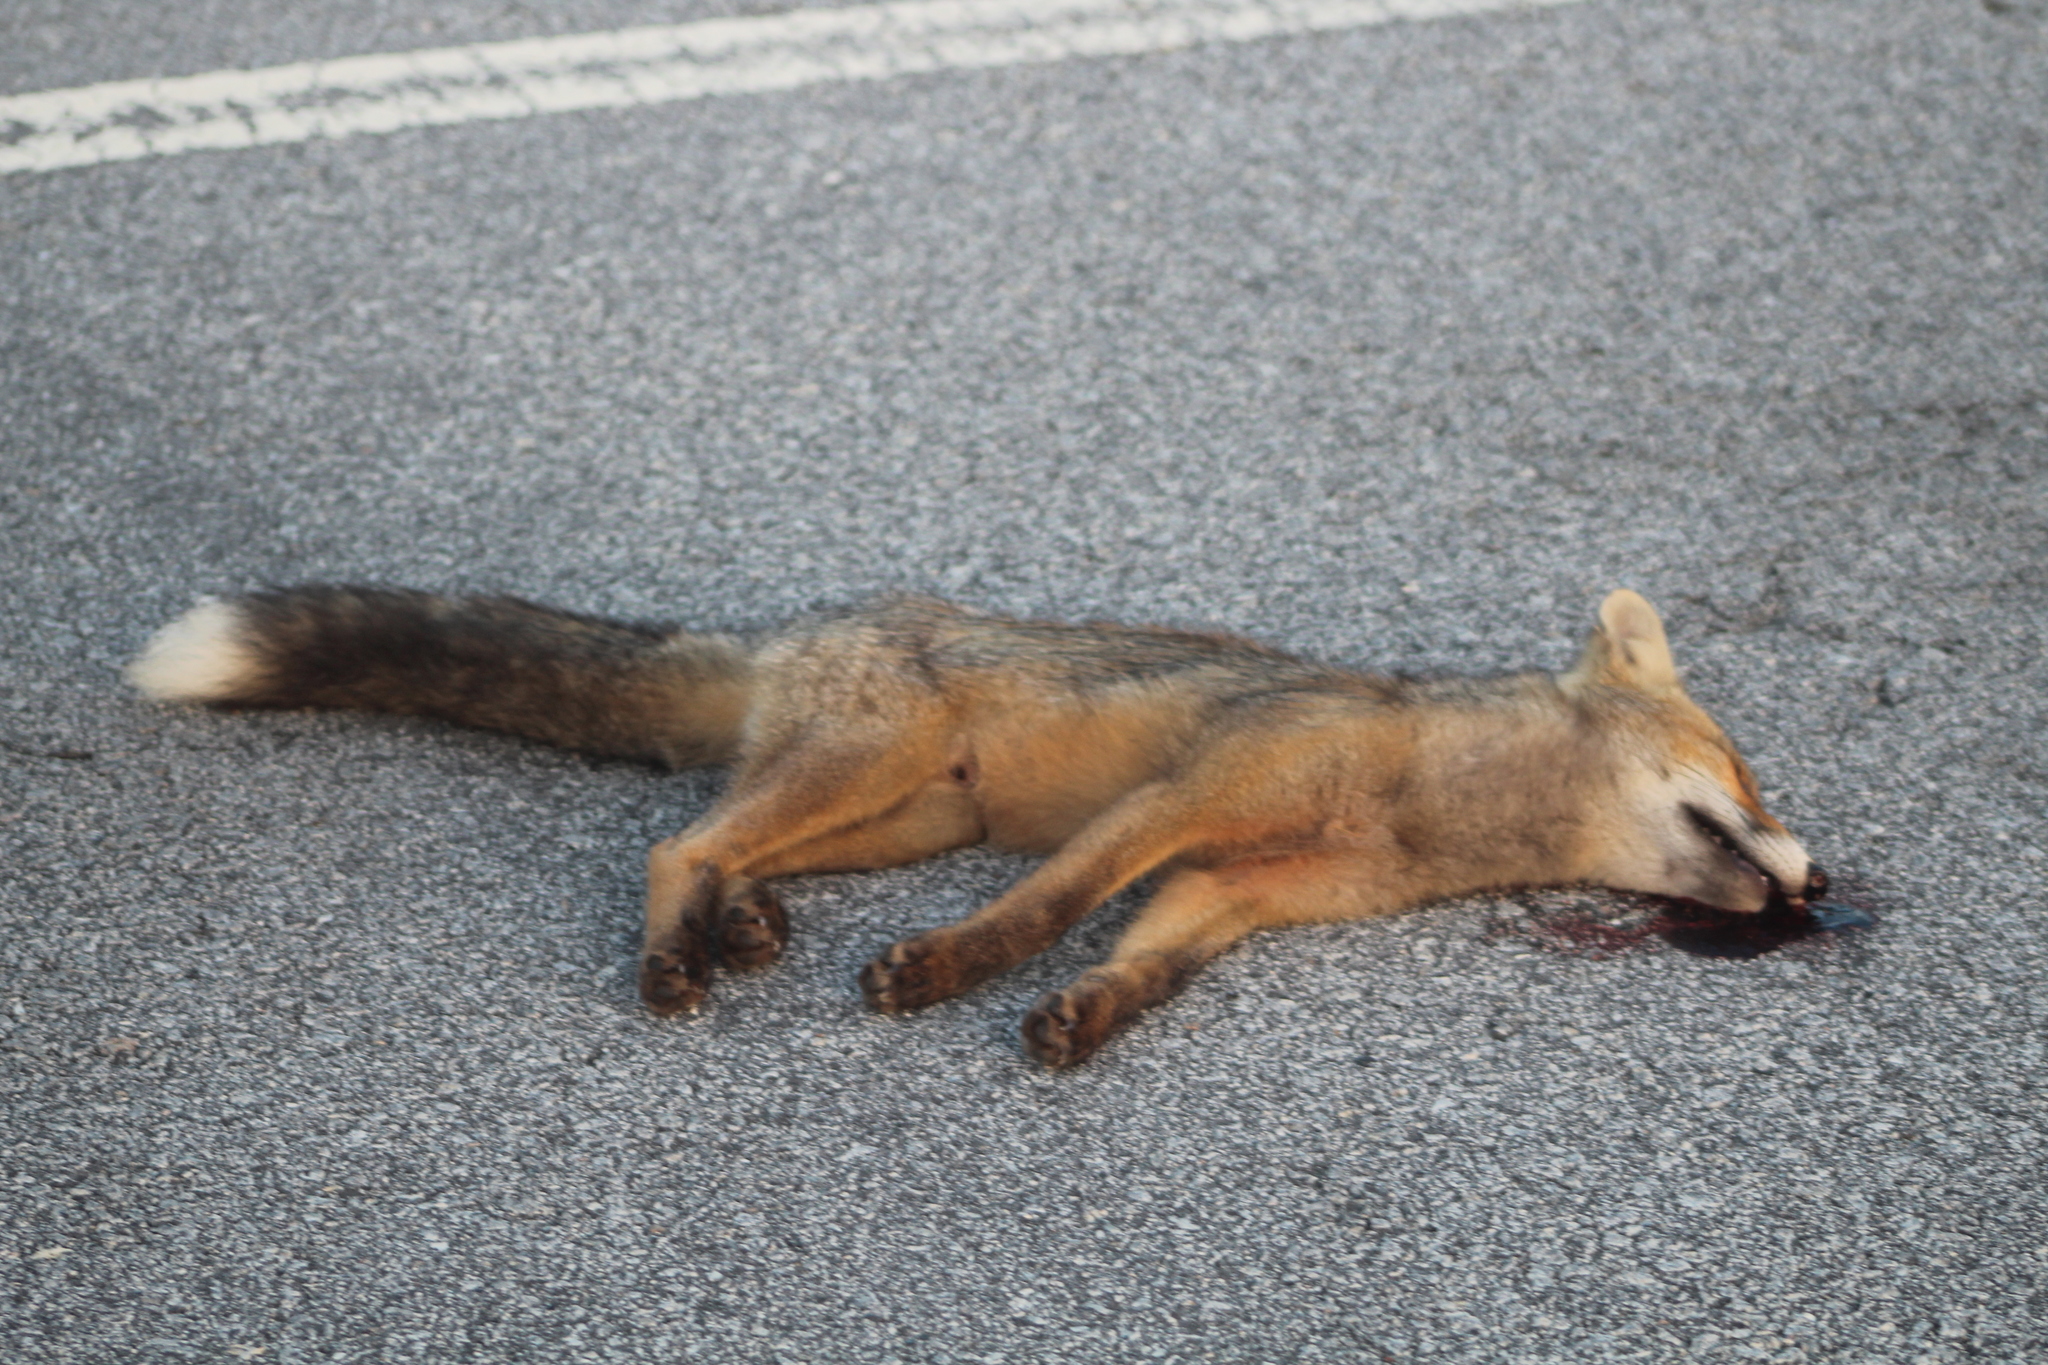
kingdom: Animalia
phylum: Chordata
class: Mammalia
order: Carnivora
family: Canidae
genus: Vulpes
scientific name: Vulpes vulpes
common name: Red fox
